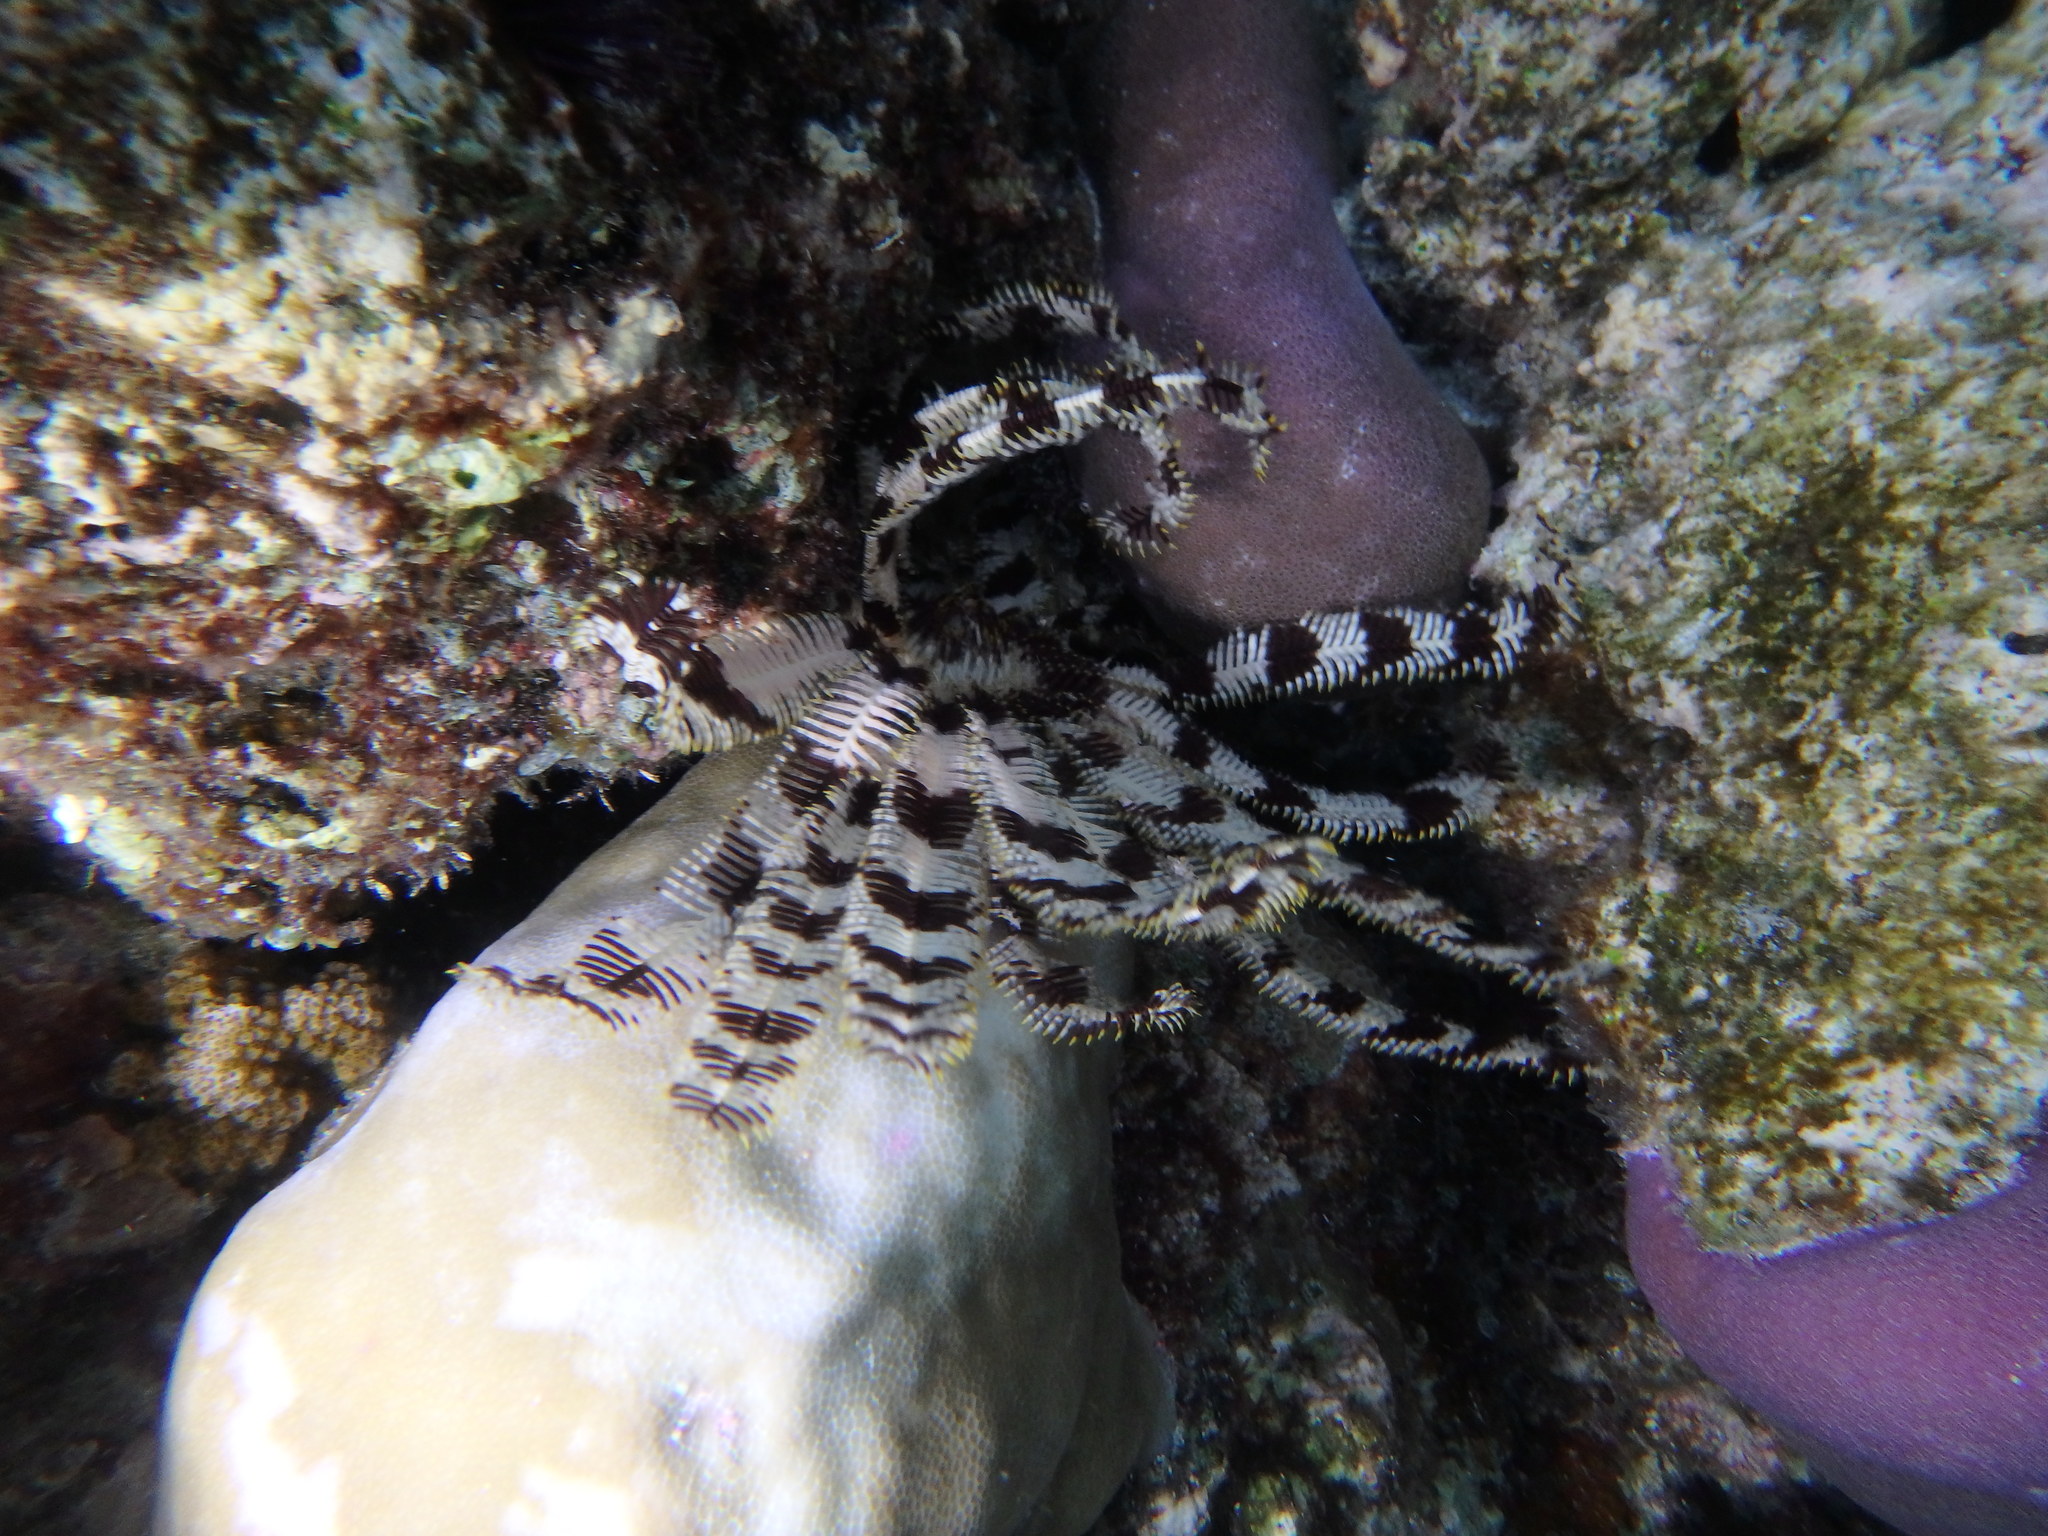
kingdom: Animalia
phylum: Echinodermata
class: Crinoidea
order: Comatulida
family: Mariametridae
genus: Stephanometra
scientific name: Stephanometra indica
